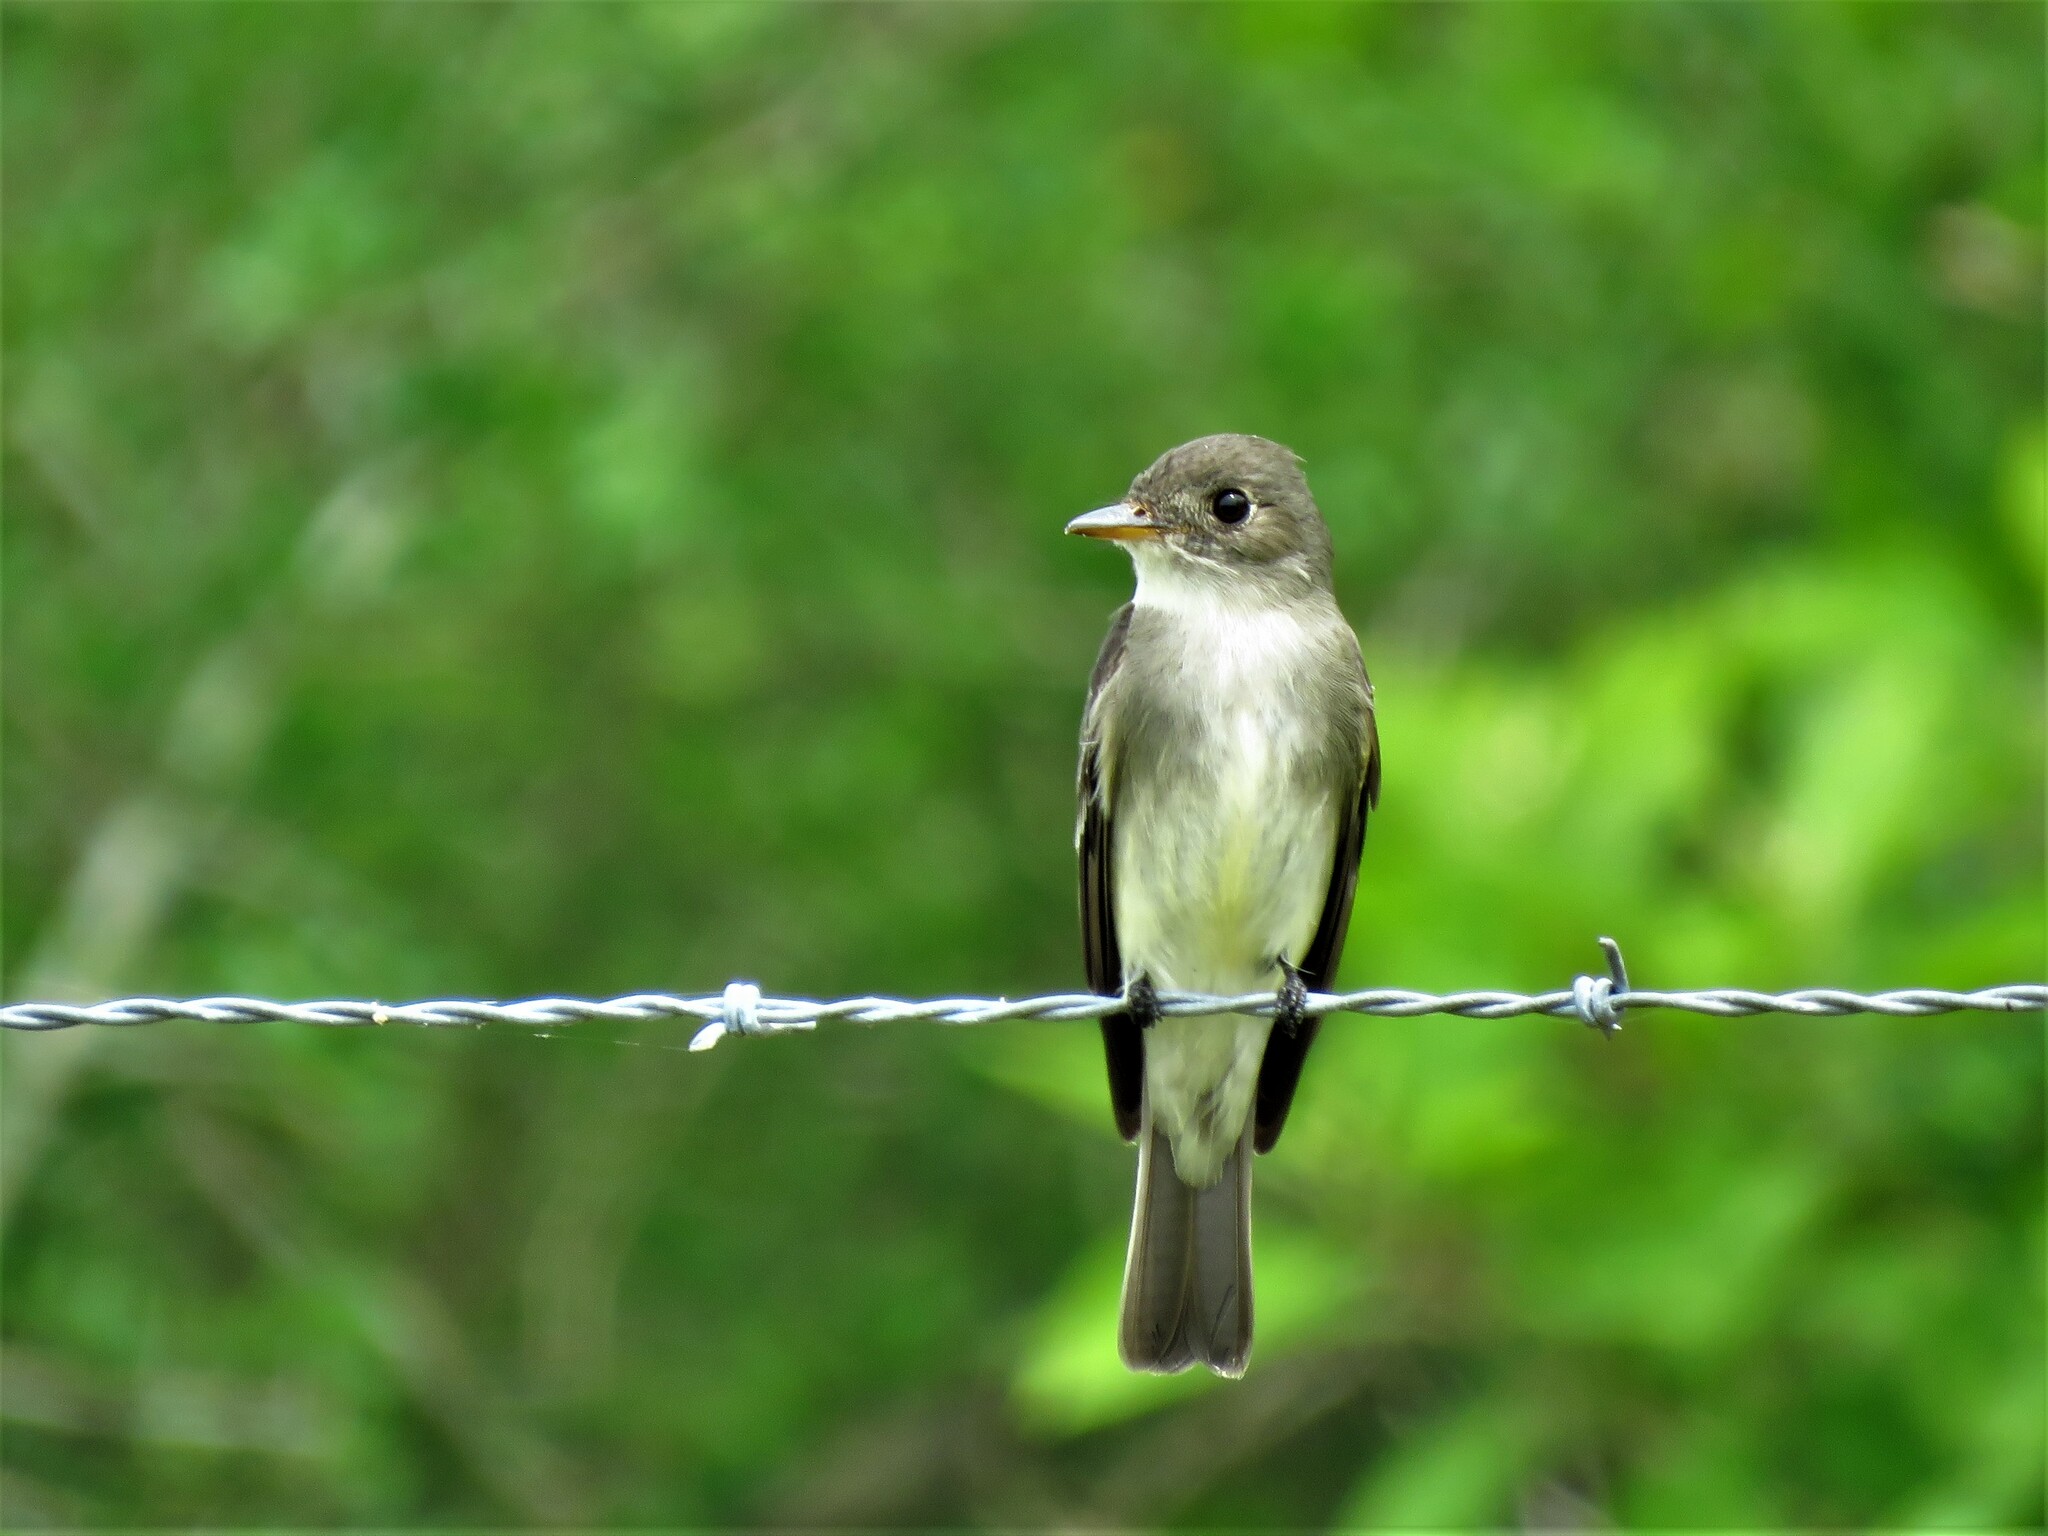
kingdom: Animalia
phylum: Chordata
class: Aves
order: Passeriformes
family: Tyrannidae
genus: Contopus
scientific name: Contopus virens
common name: Eastern wood-pewee
